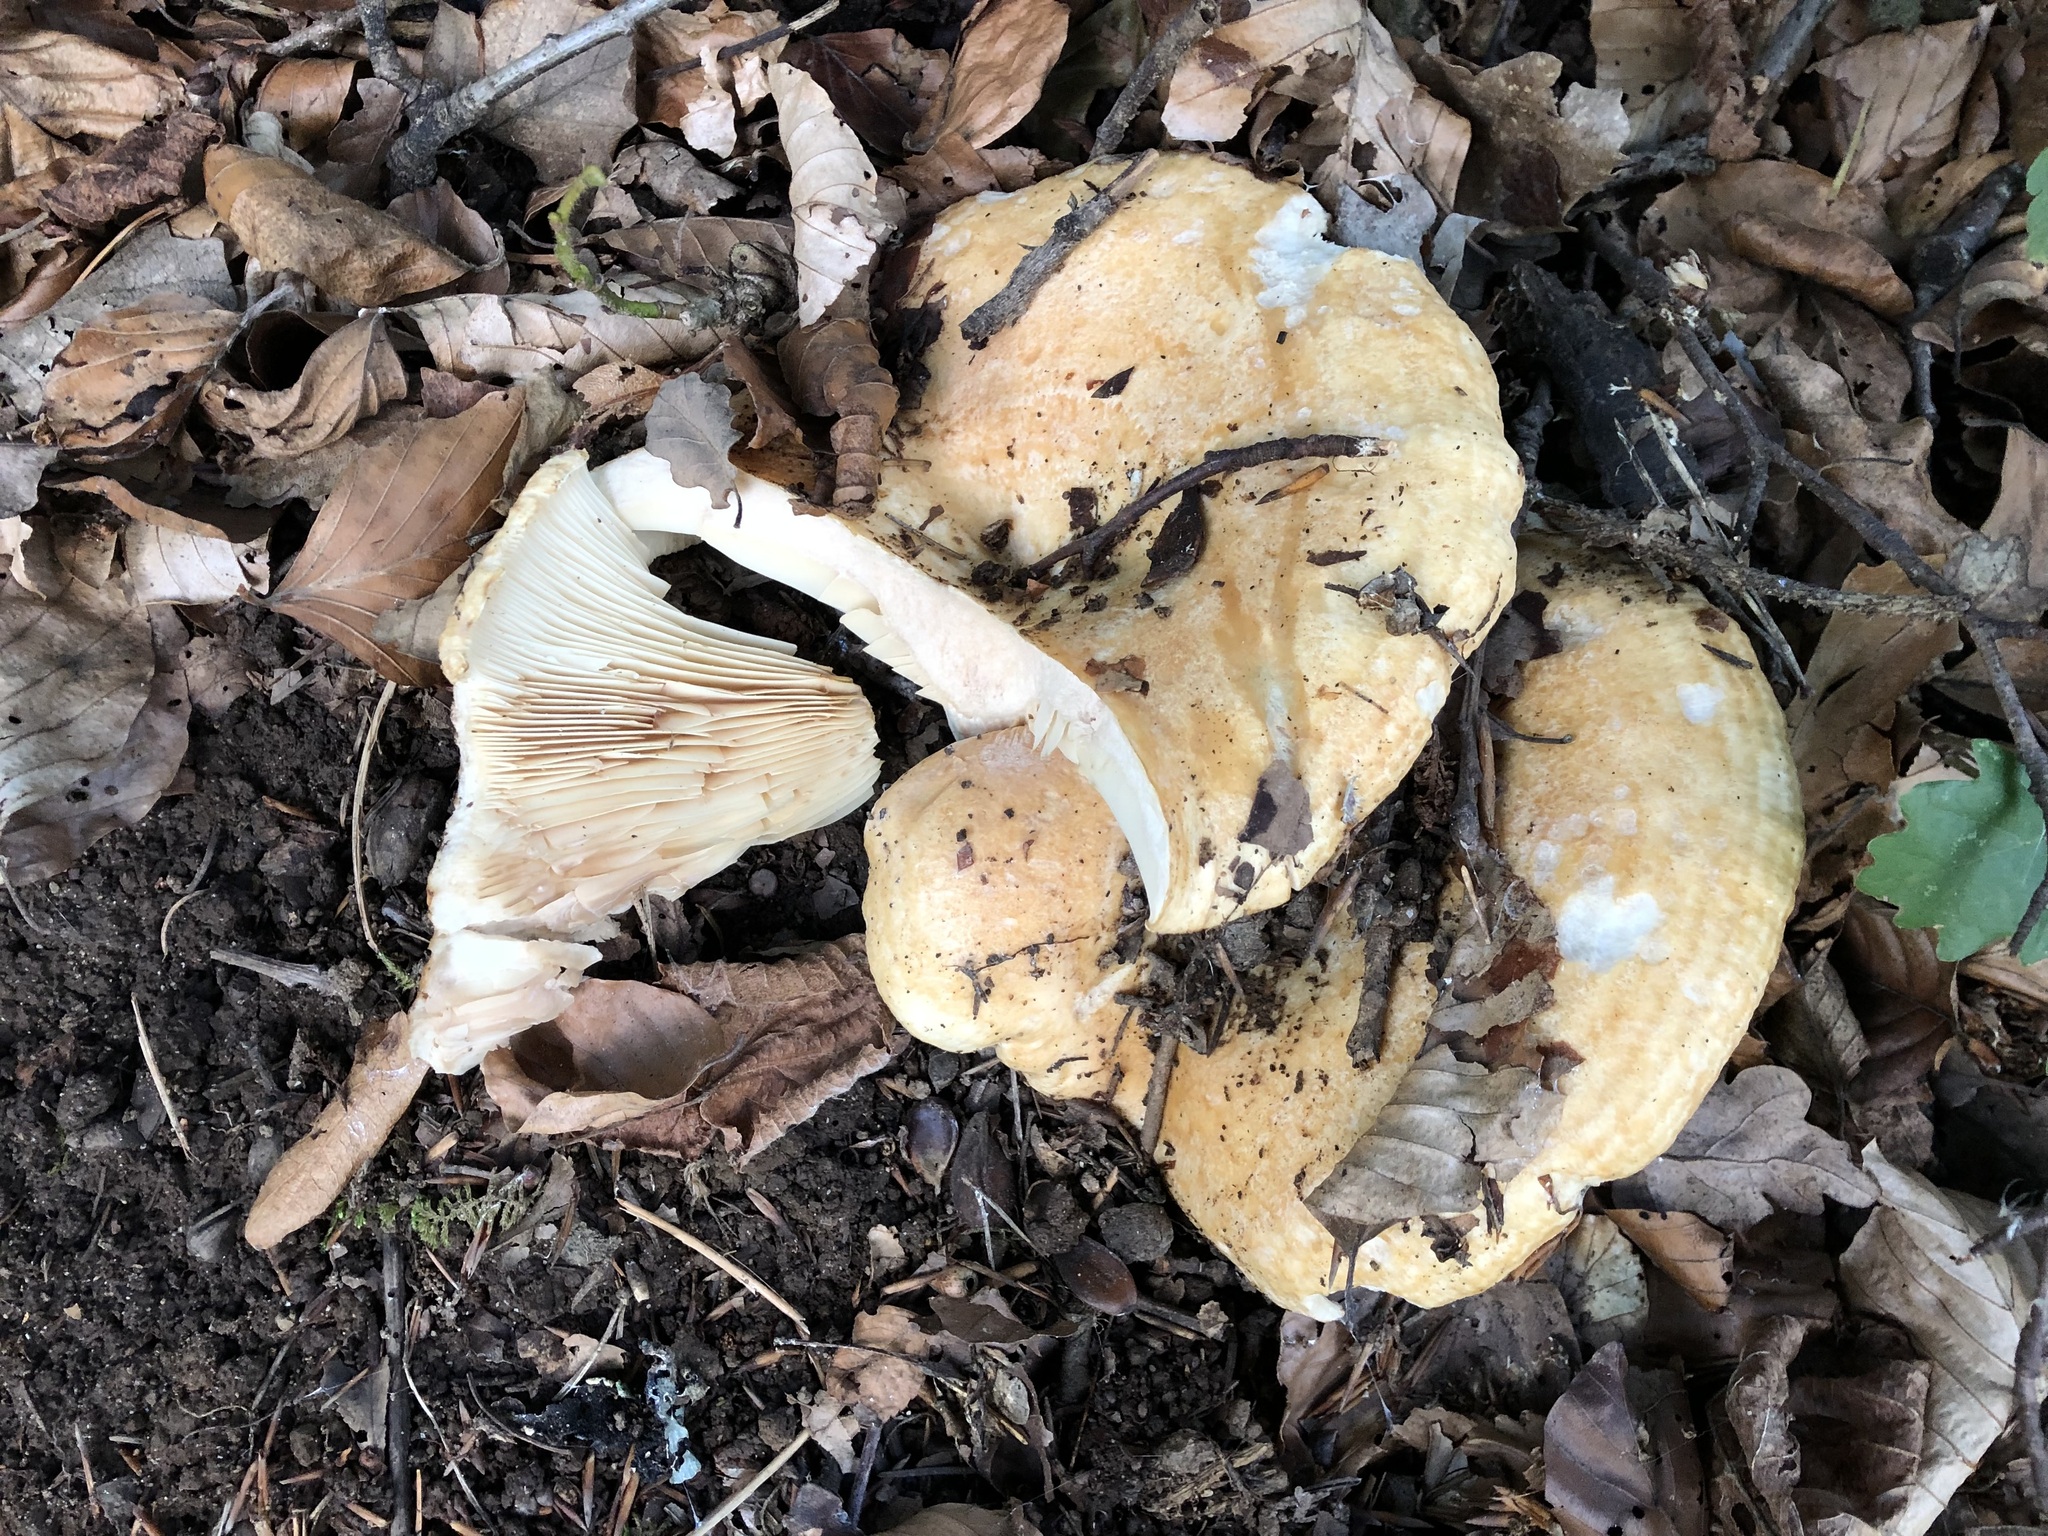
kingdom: Fungi
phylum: Basidiomycota
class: Agaricomycetes
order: Russulales
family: Russulaceae
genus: Lactarius
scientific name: Lactarius zonarius
